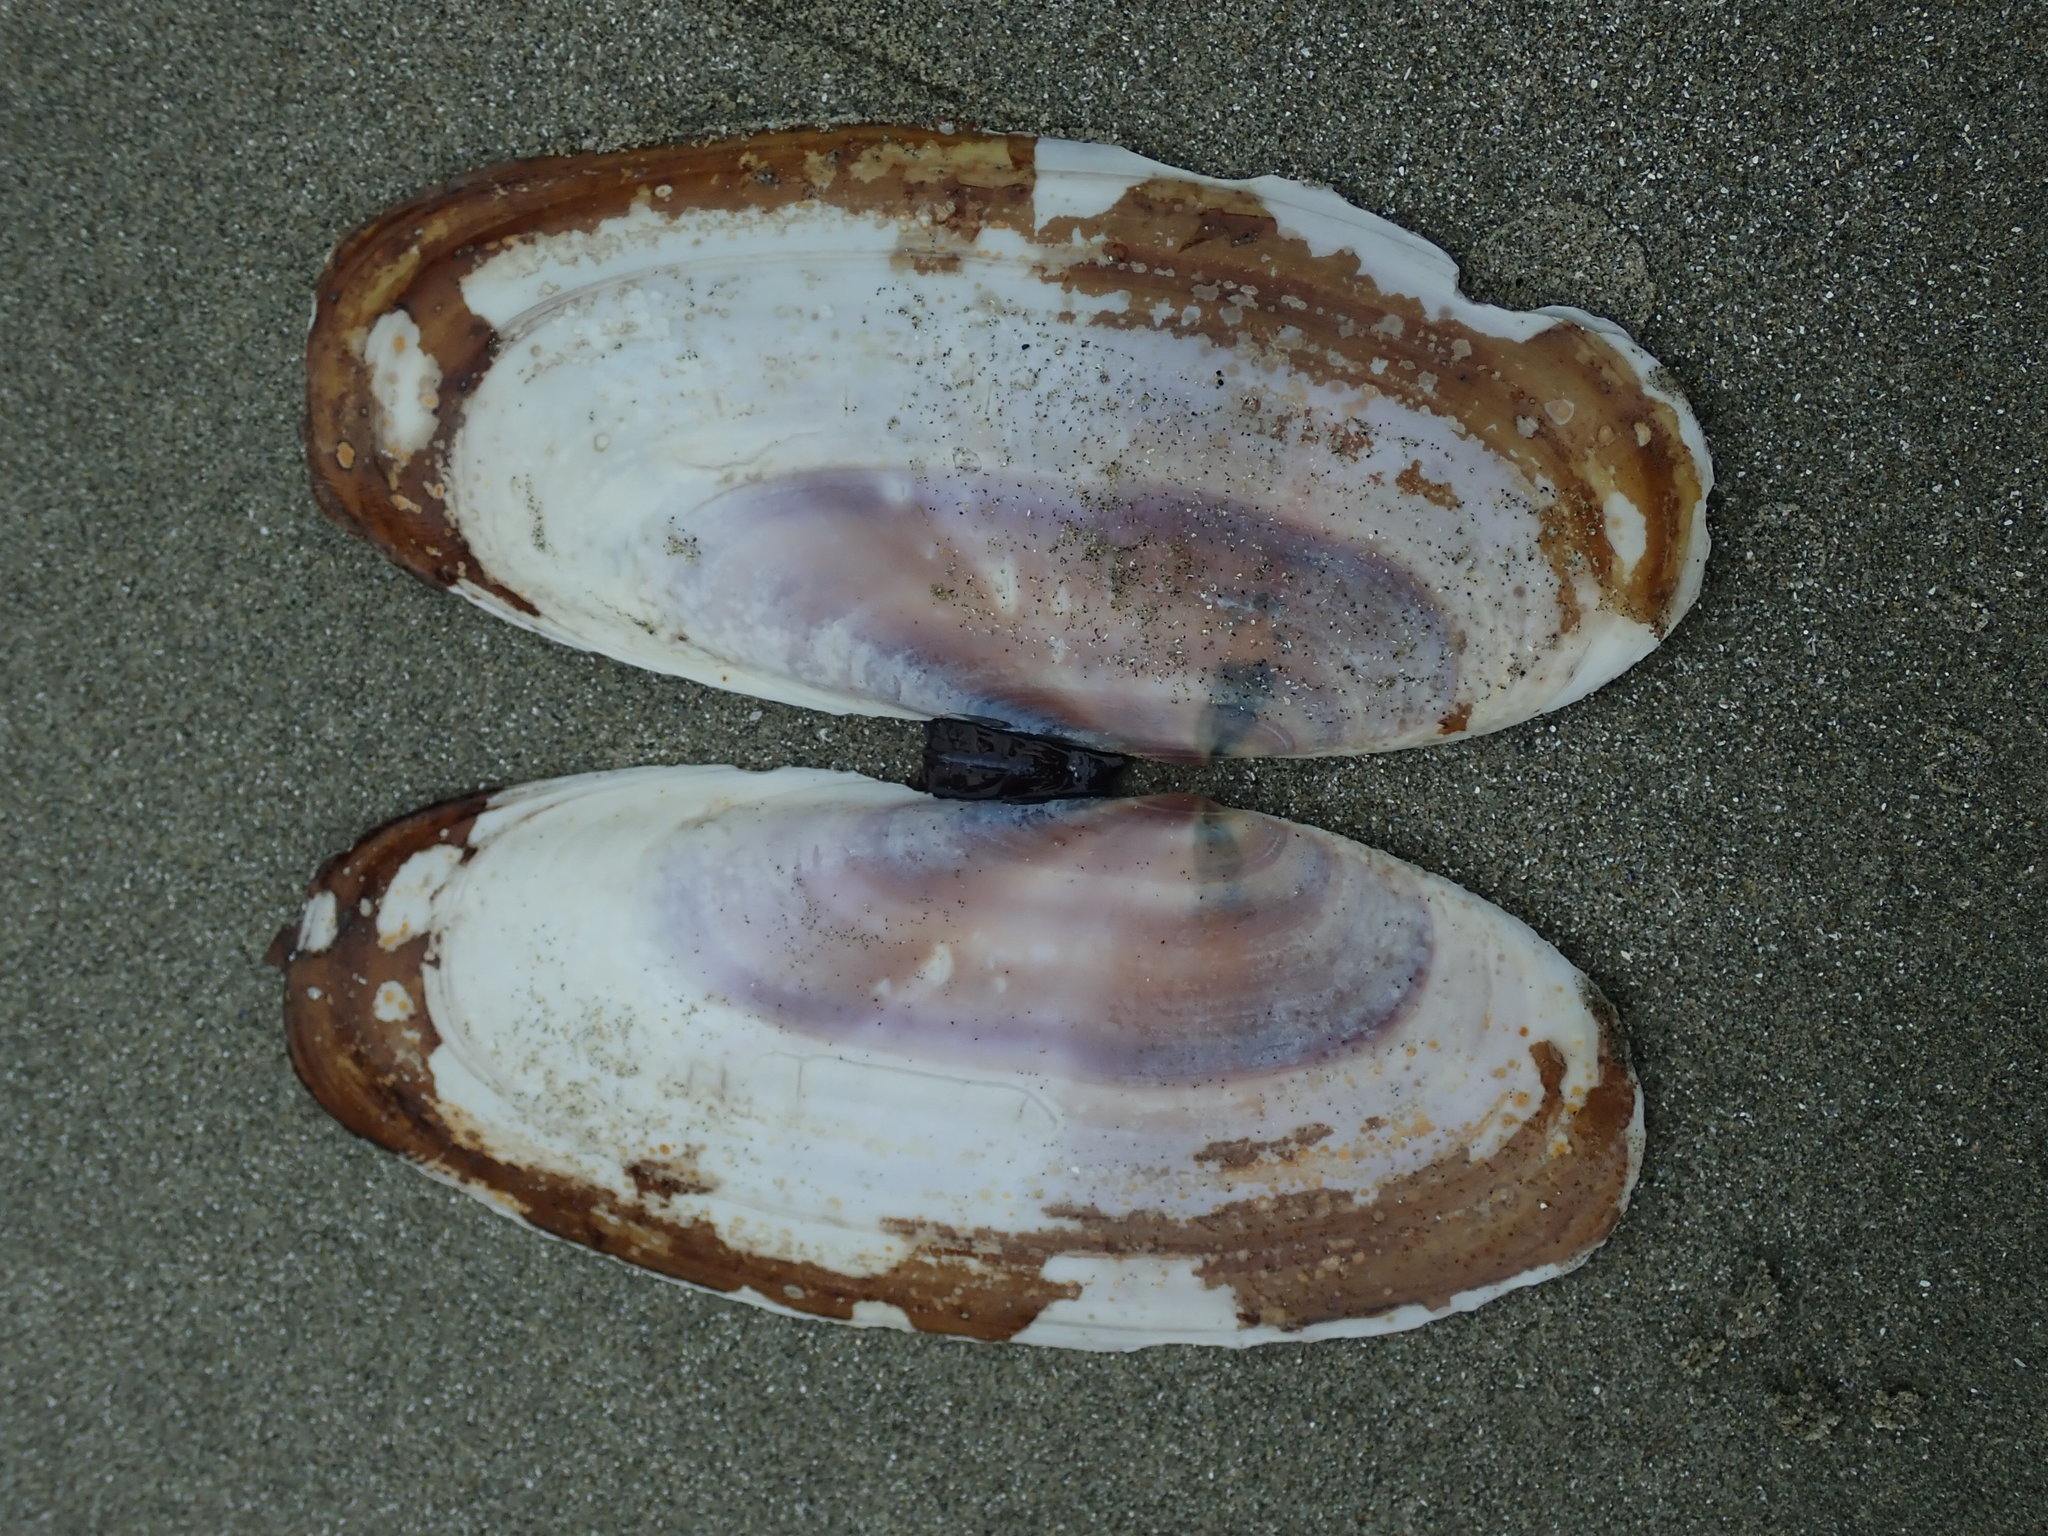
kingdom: Animalia
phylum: Mollusca
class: Bivalvia
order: Adapedonta
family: Pharidae
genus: Siliqua
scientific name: Siliqua patula
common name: Pacific razor clam
